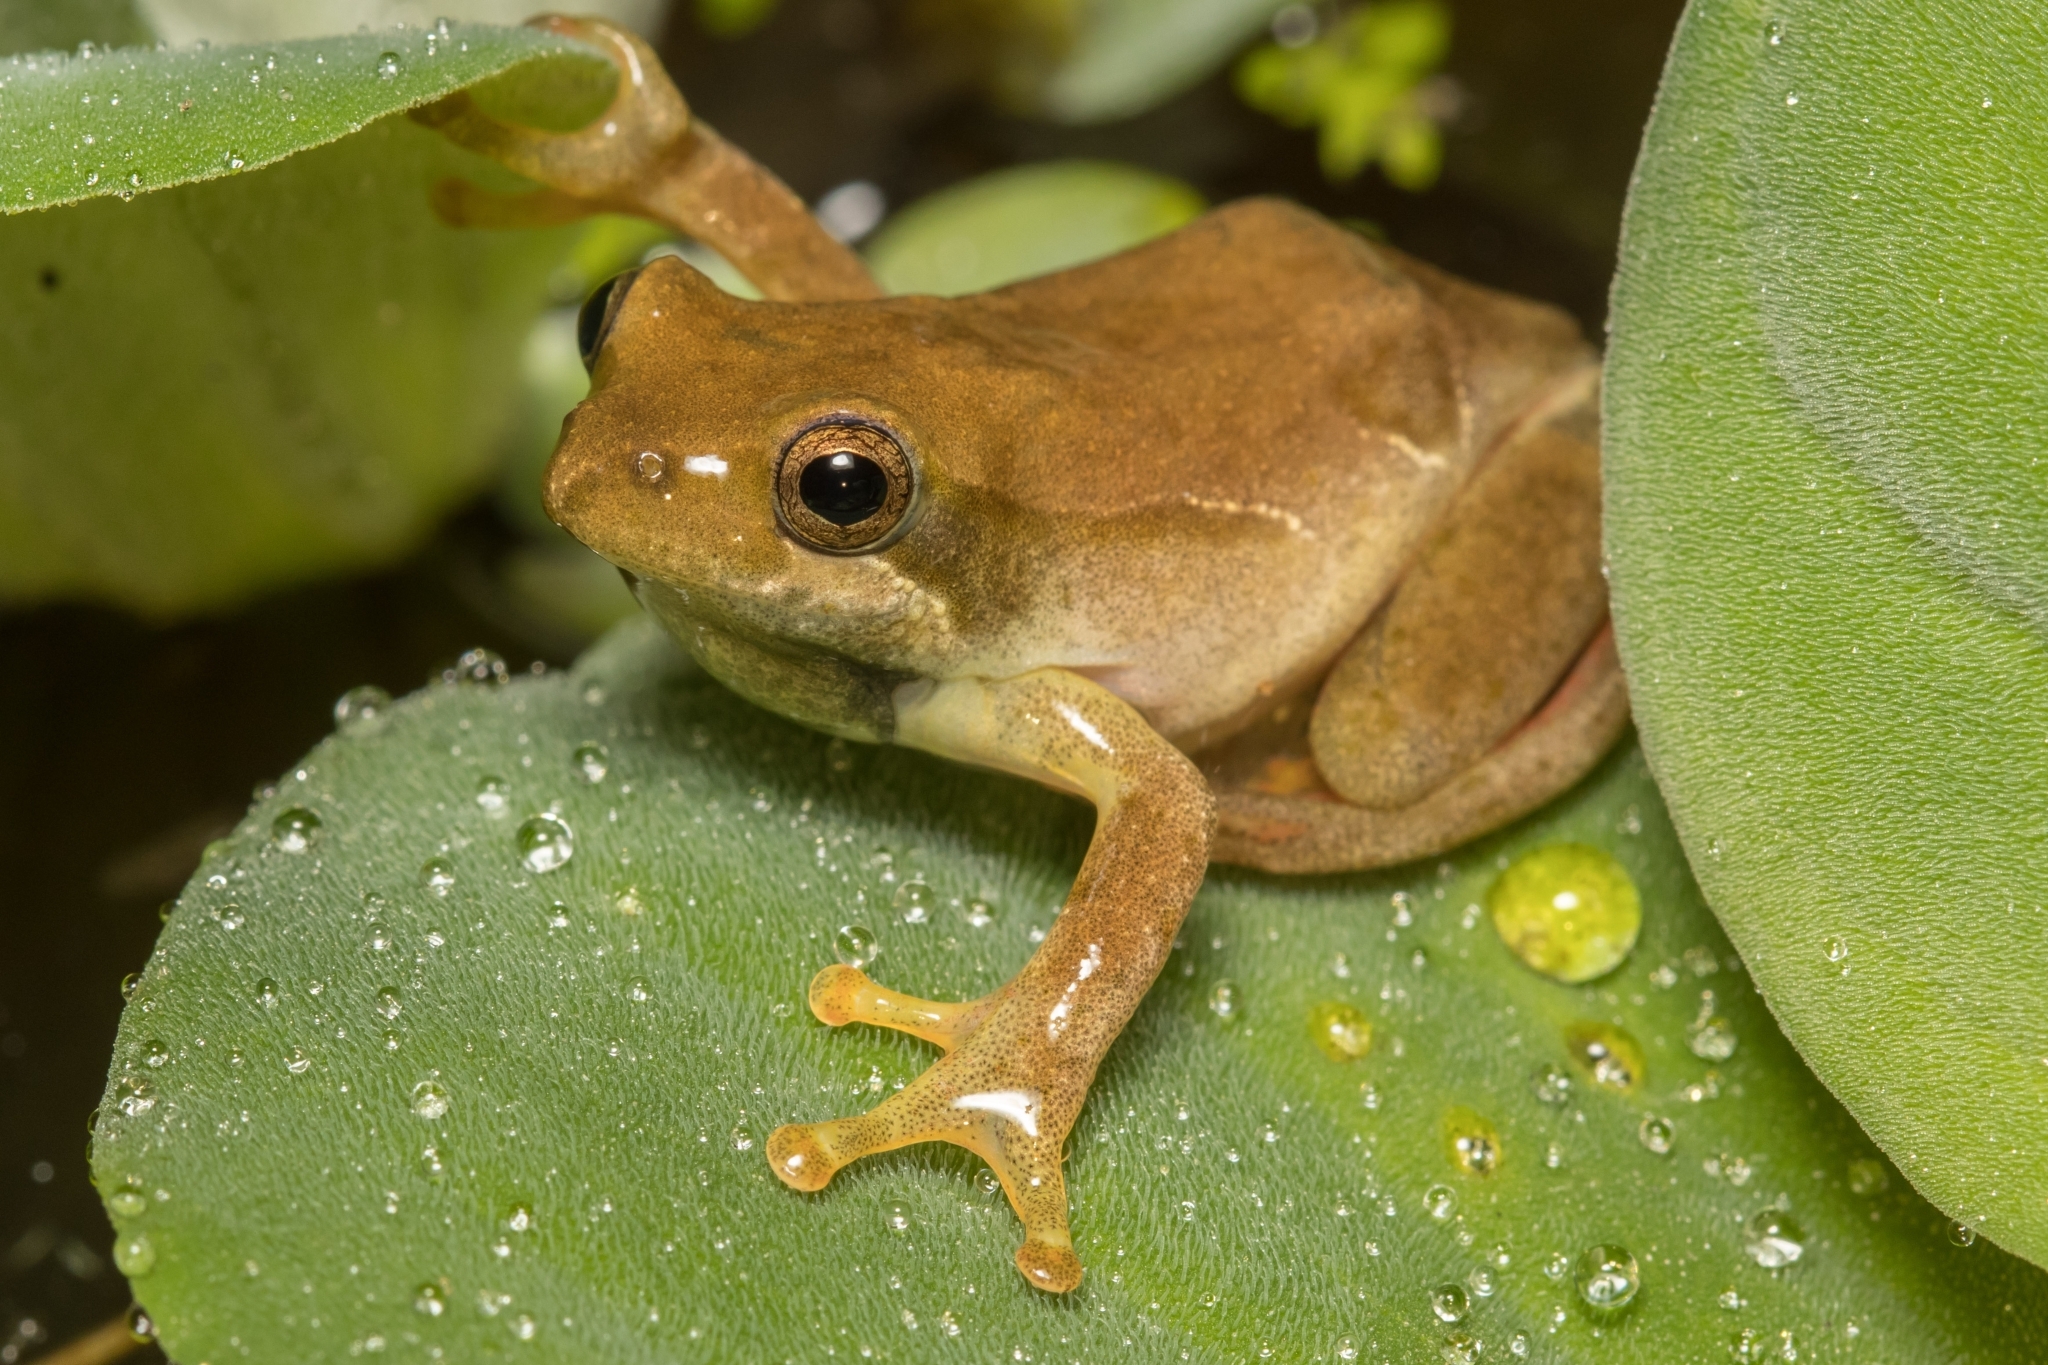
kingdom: Animalia
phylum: Chordata
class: Amphibia
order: Anura
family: Hyperoliidae
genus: Hyperolius
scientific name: Hyperolius marmoratus
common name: Painted reed frog
